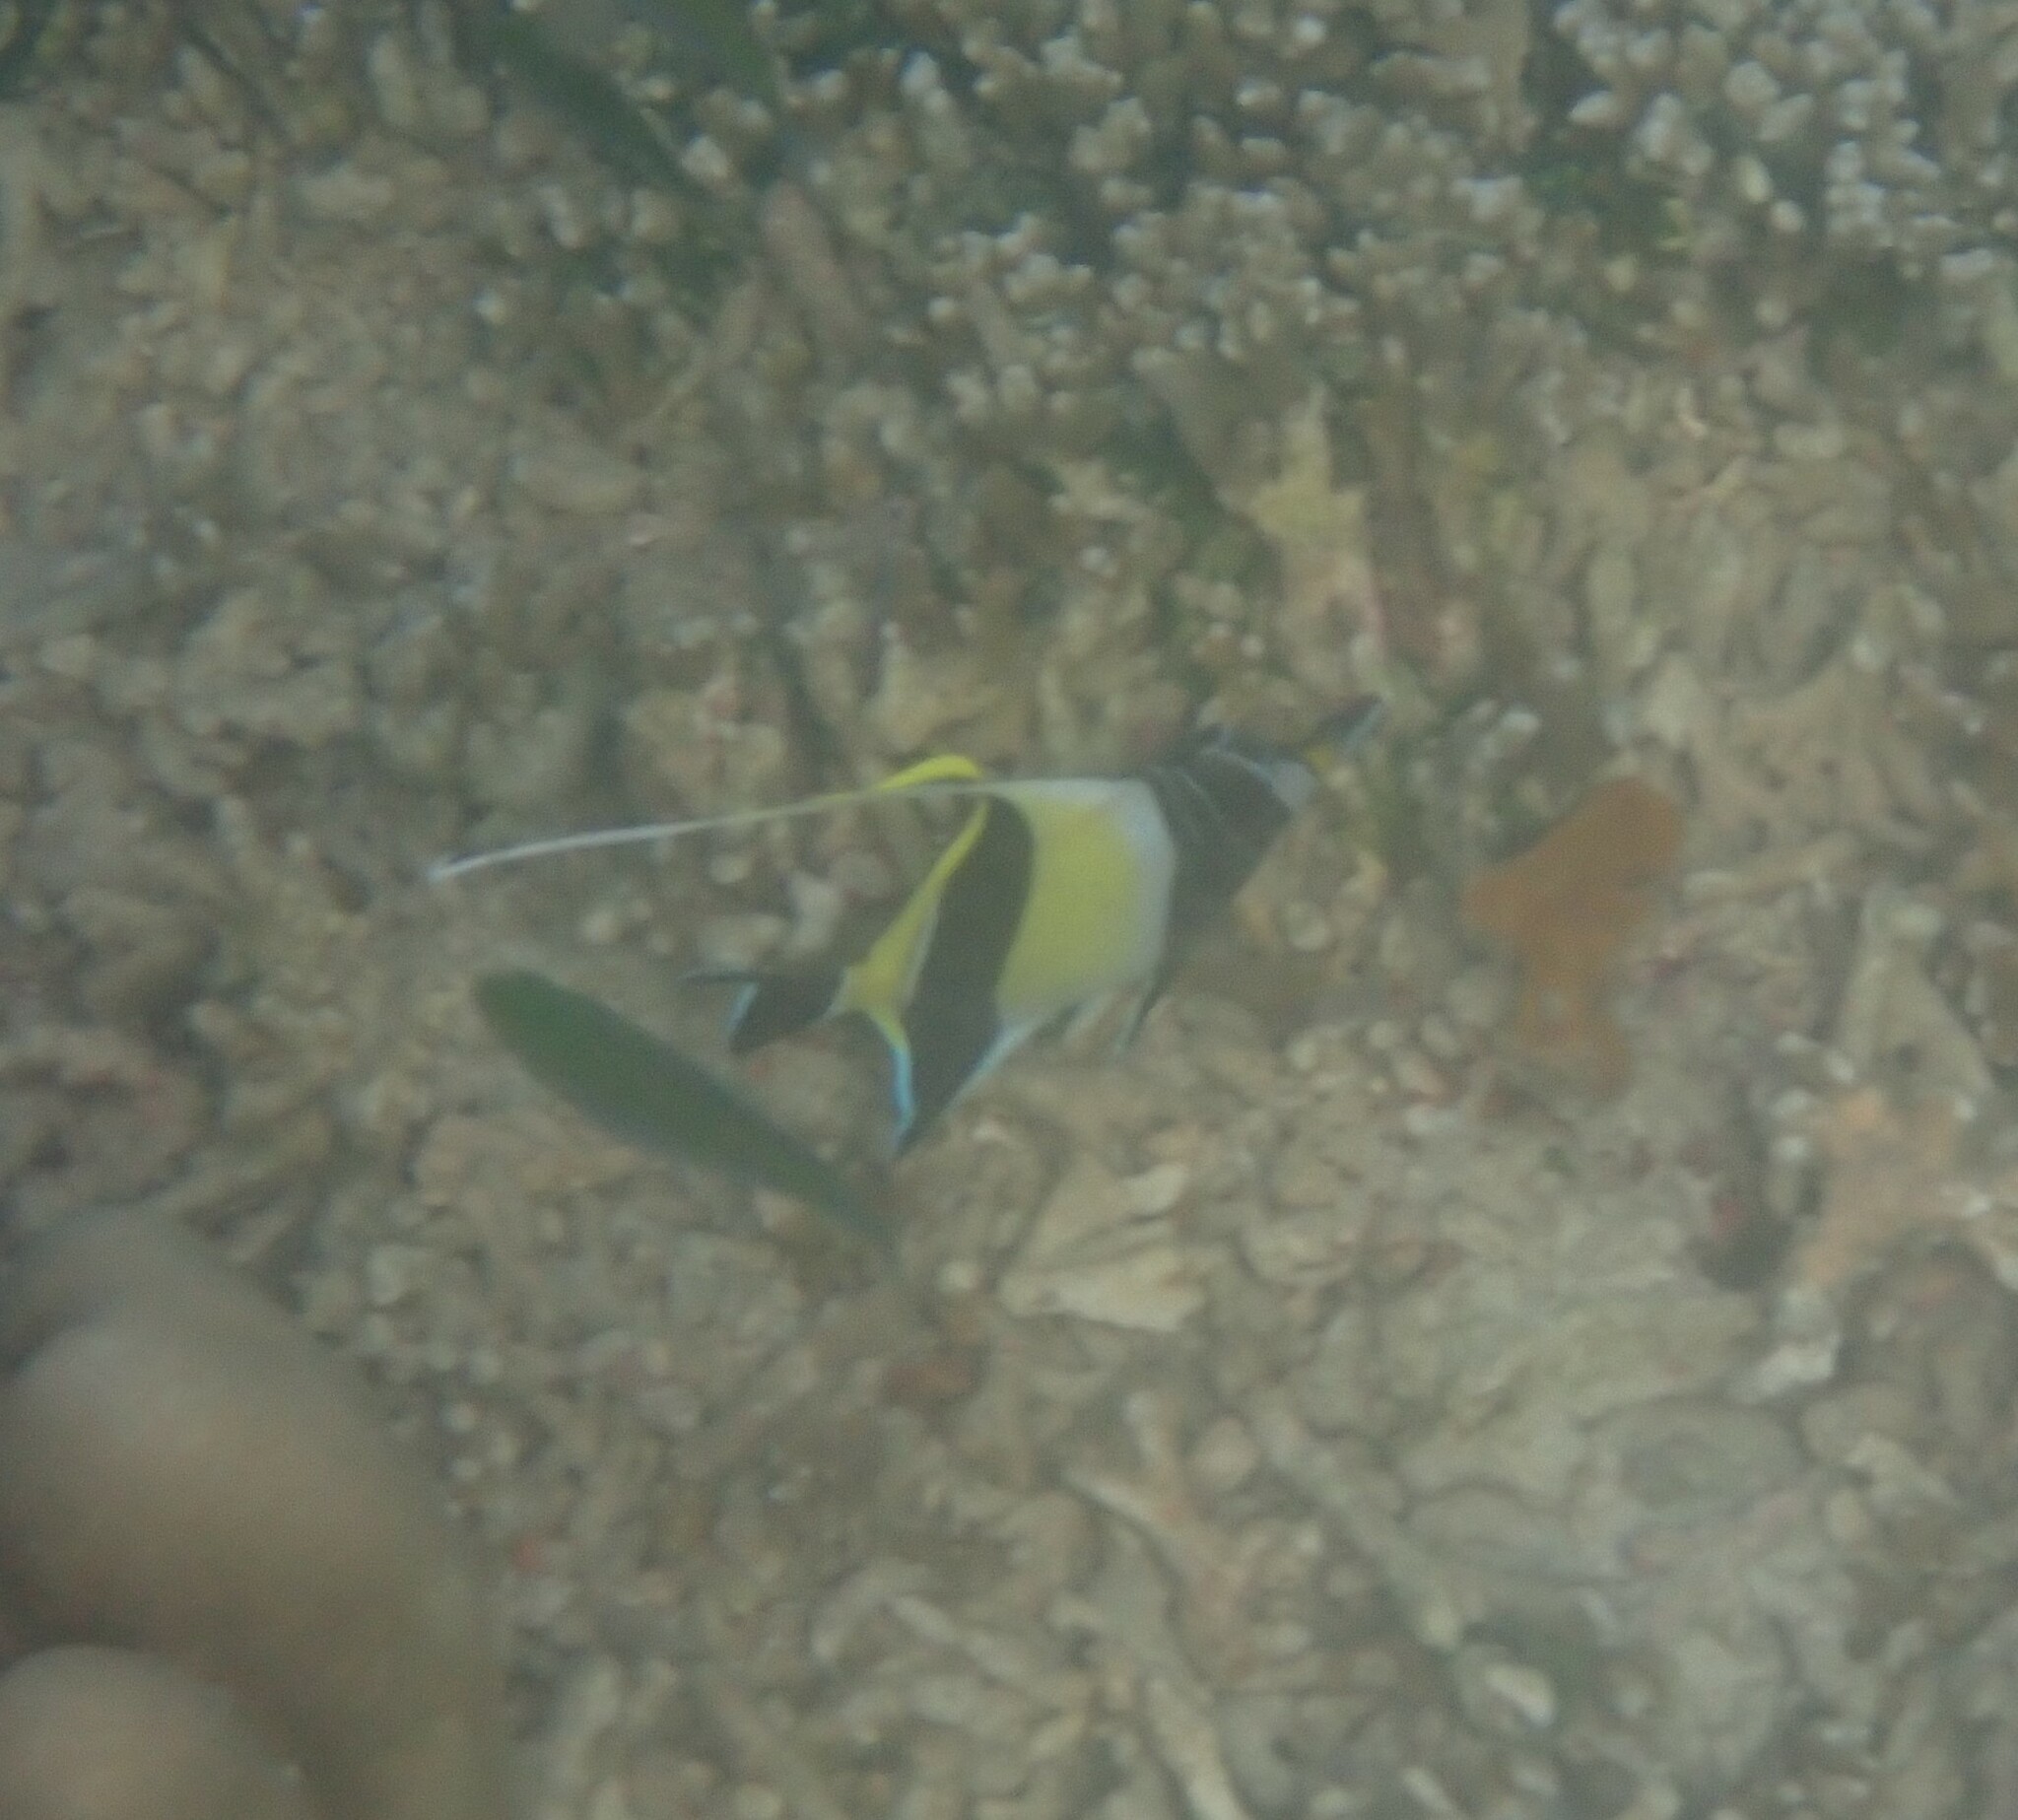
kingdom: Animalia
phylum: Chordata
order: Perciformes
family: Zanclidae
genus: Zanclus
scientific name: Zanclus cornutus
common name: Moorish idol
